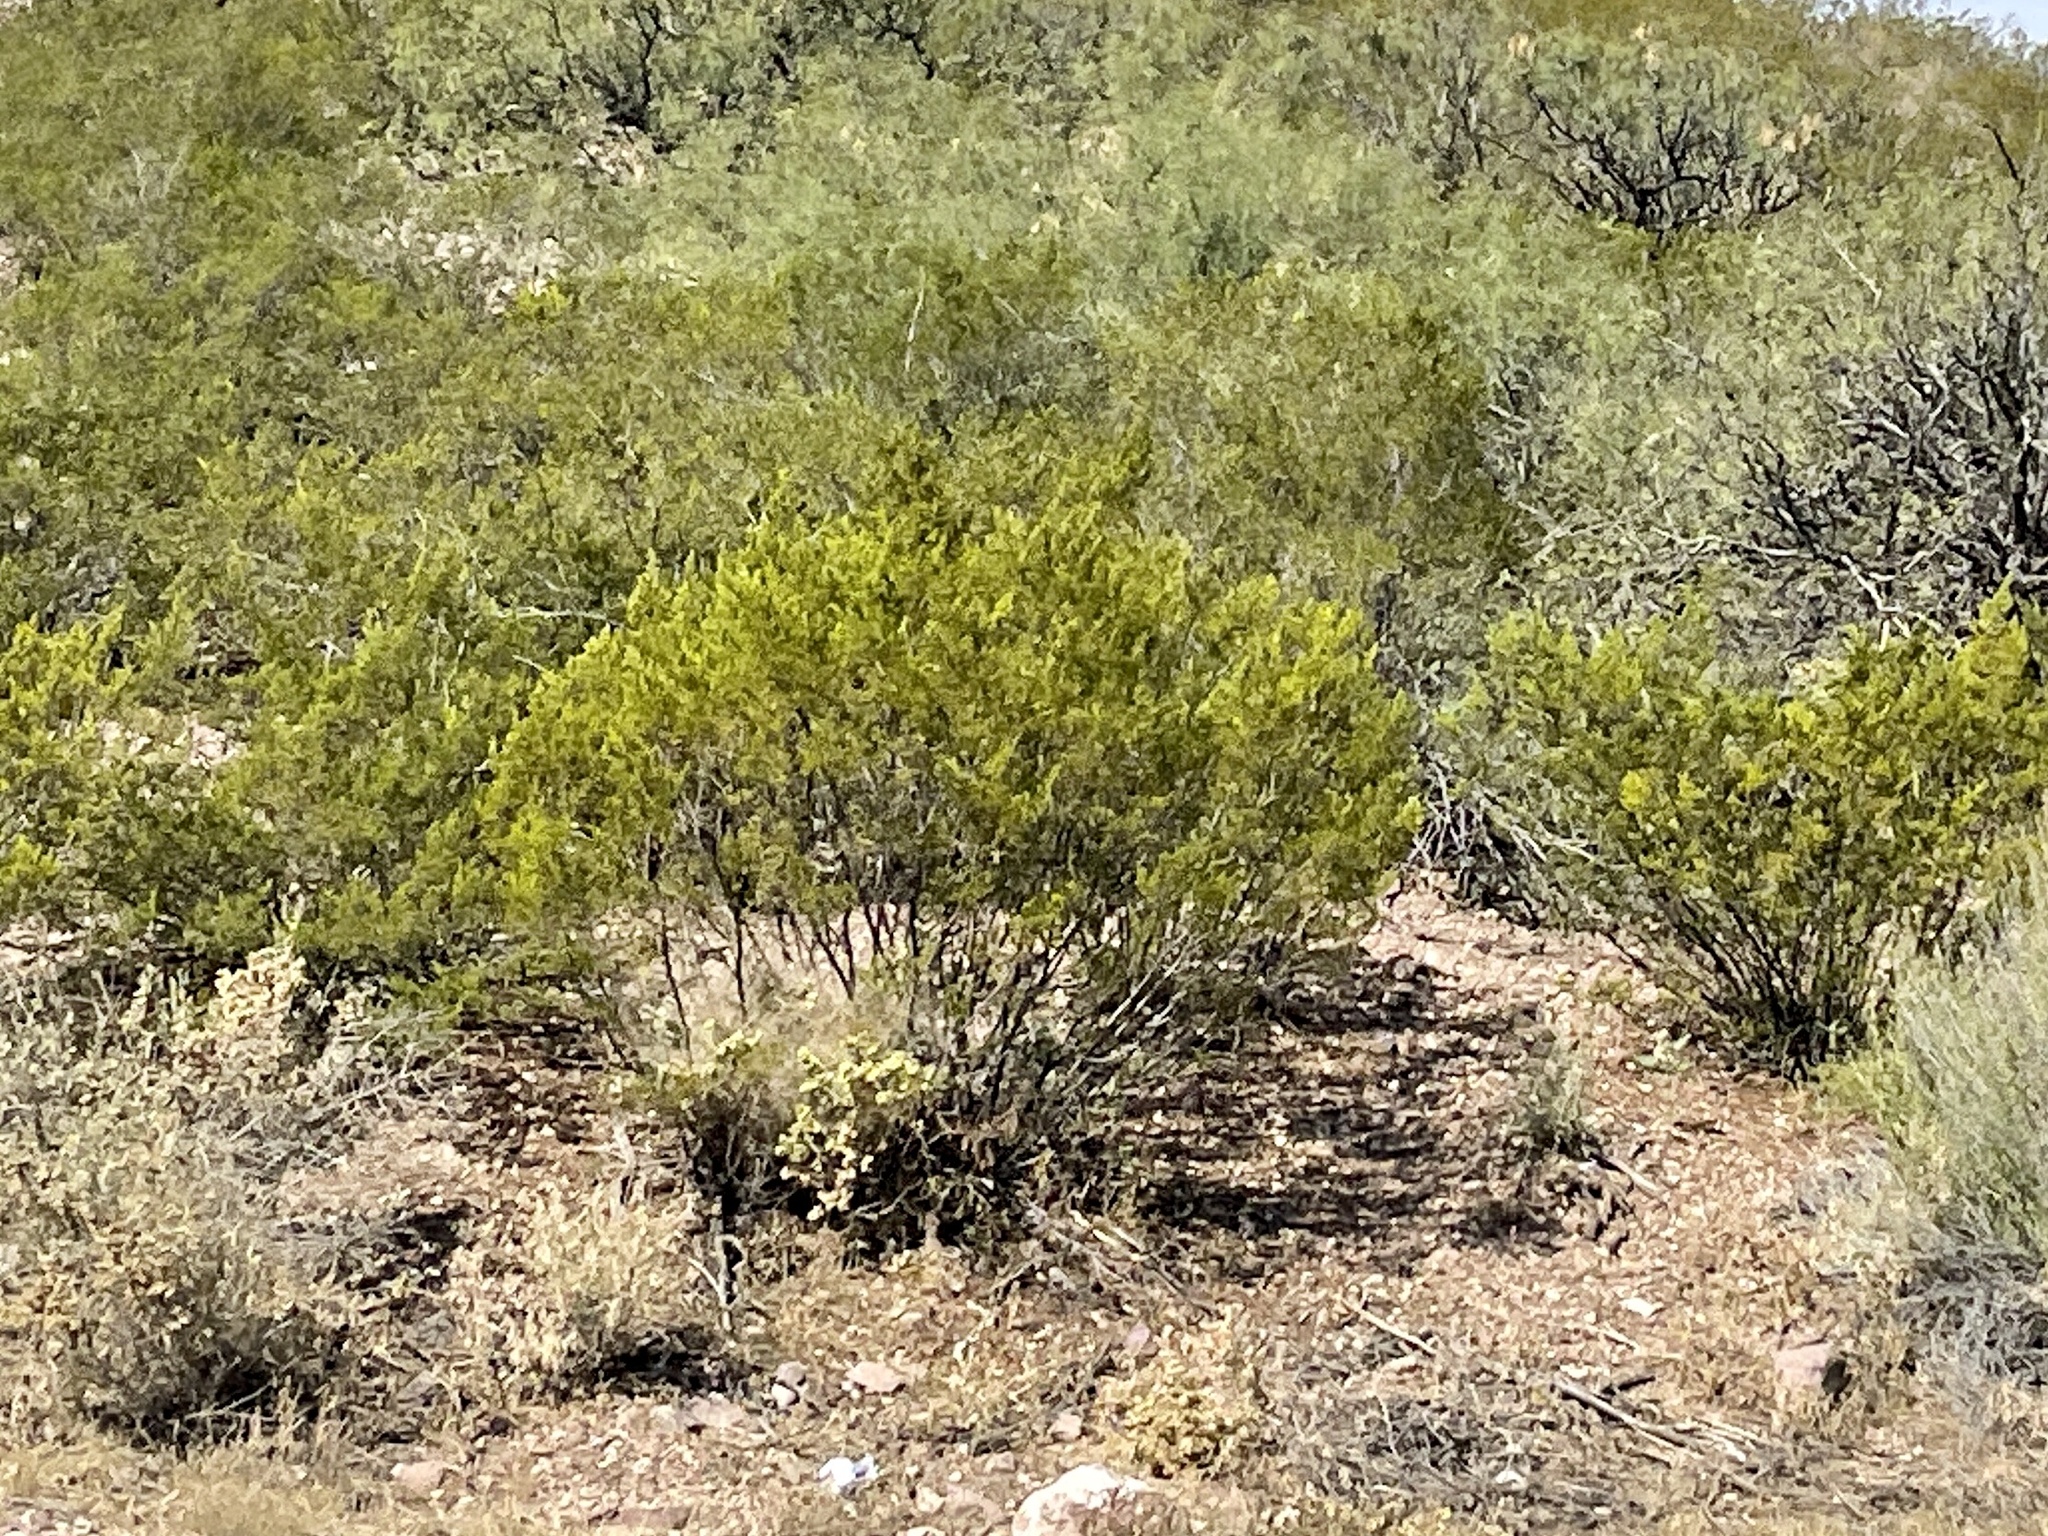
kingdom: Plantae
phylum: Tracheophyta
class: Magnoliopsida
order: Zygophyllales
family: Zygophyllaceae
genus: Larrea
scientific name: Larrea tridentata
